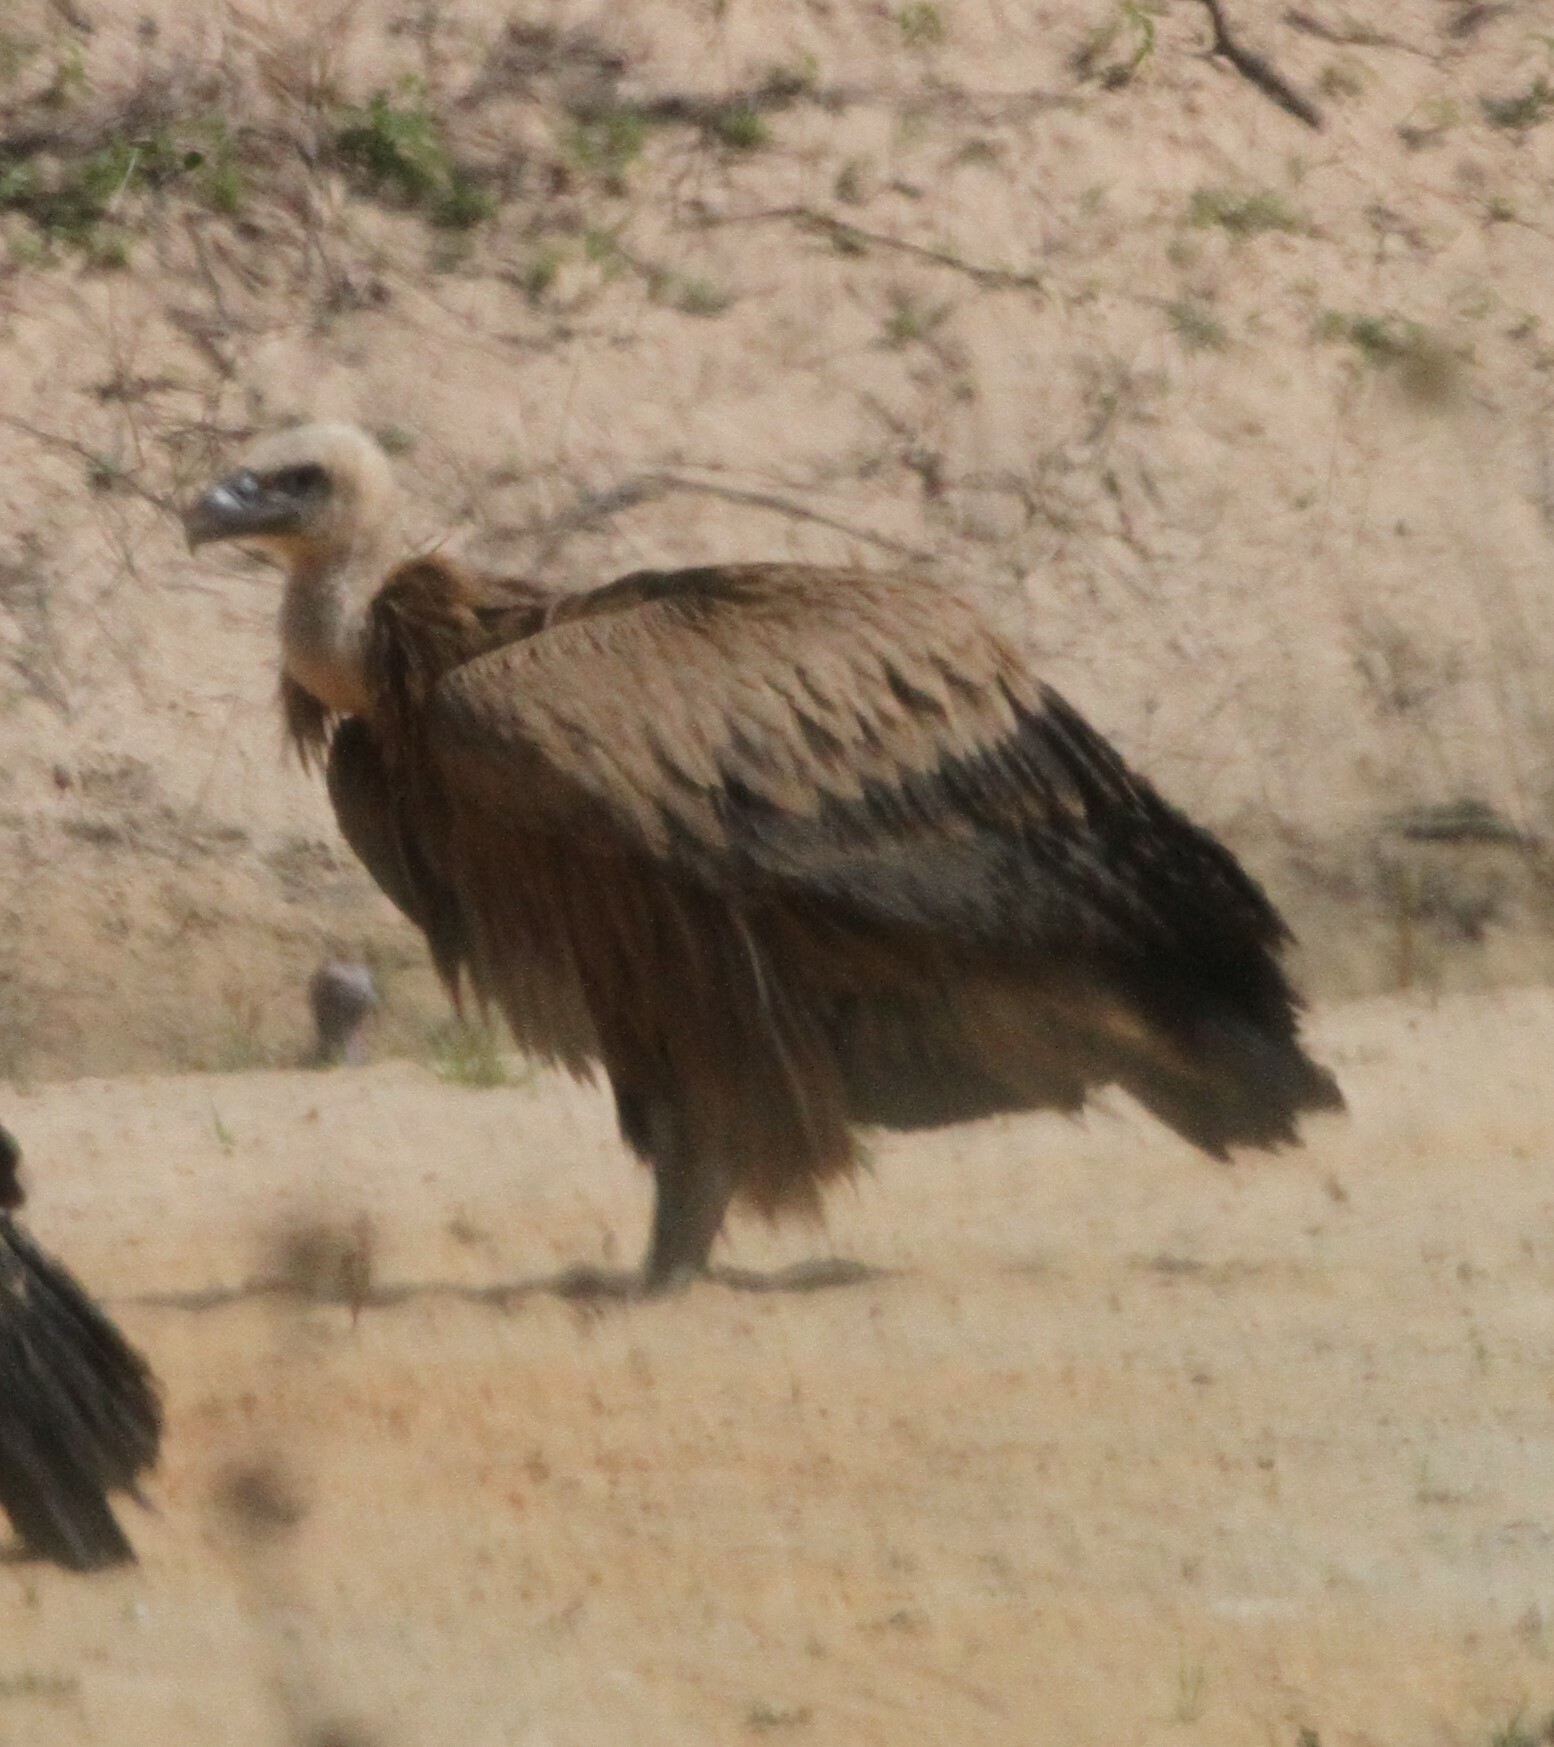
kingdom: Animalia
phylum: Chordata
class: Aves
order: Accipitriformes
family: Accipitridae
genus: Gyps
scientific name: Gyps fulvus
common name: Griffon vulture
